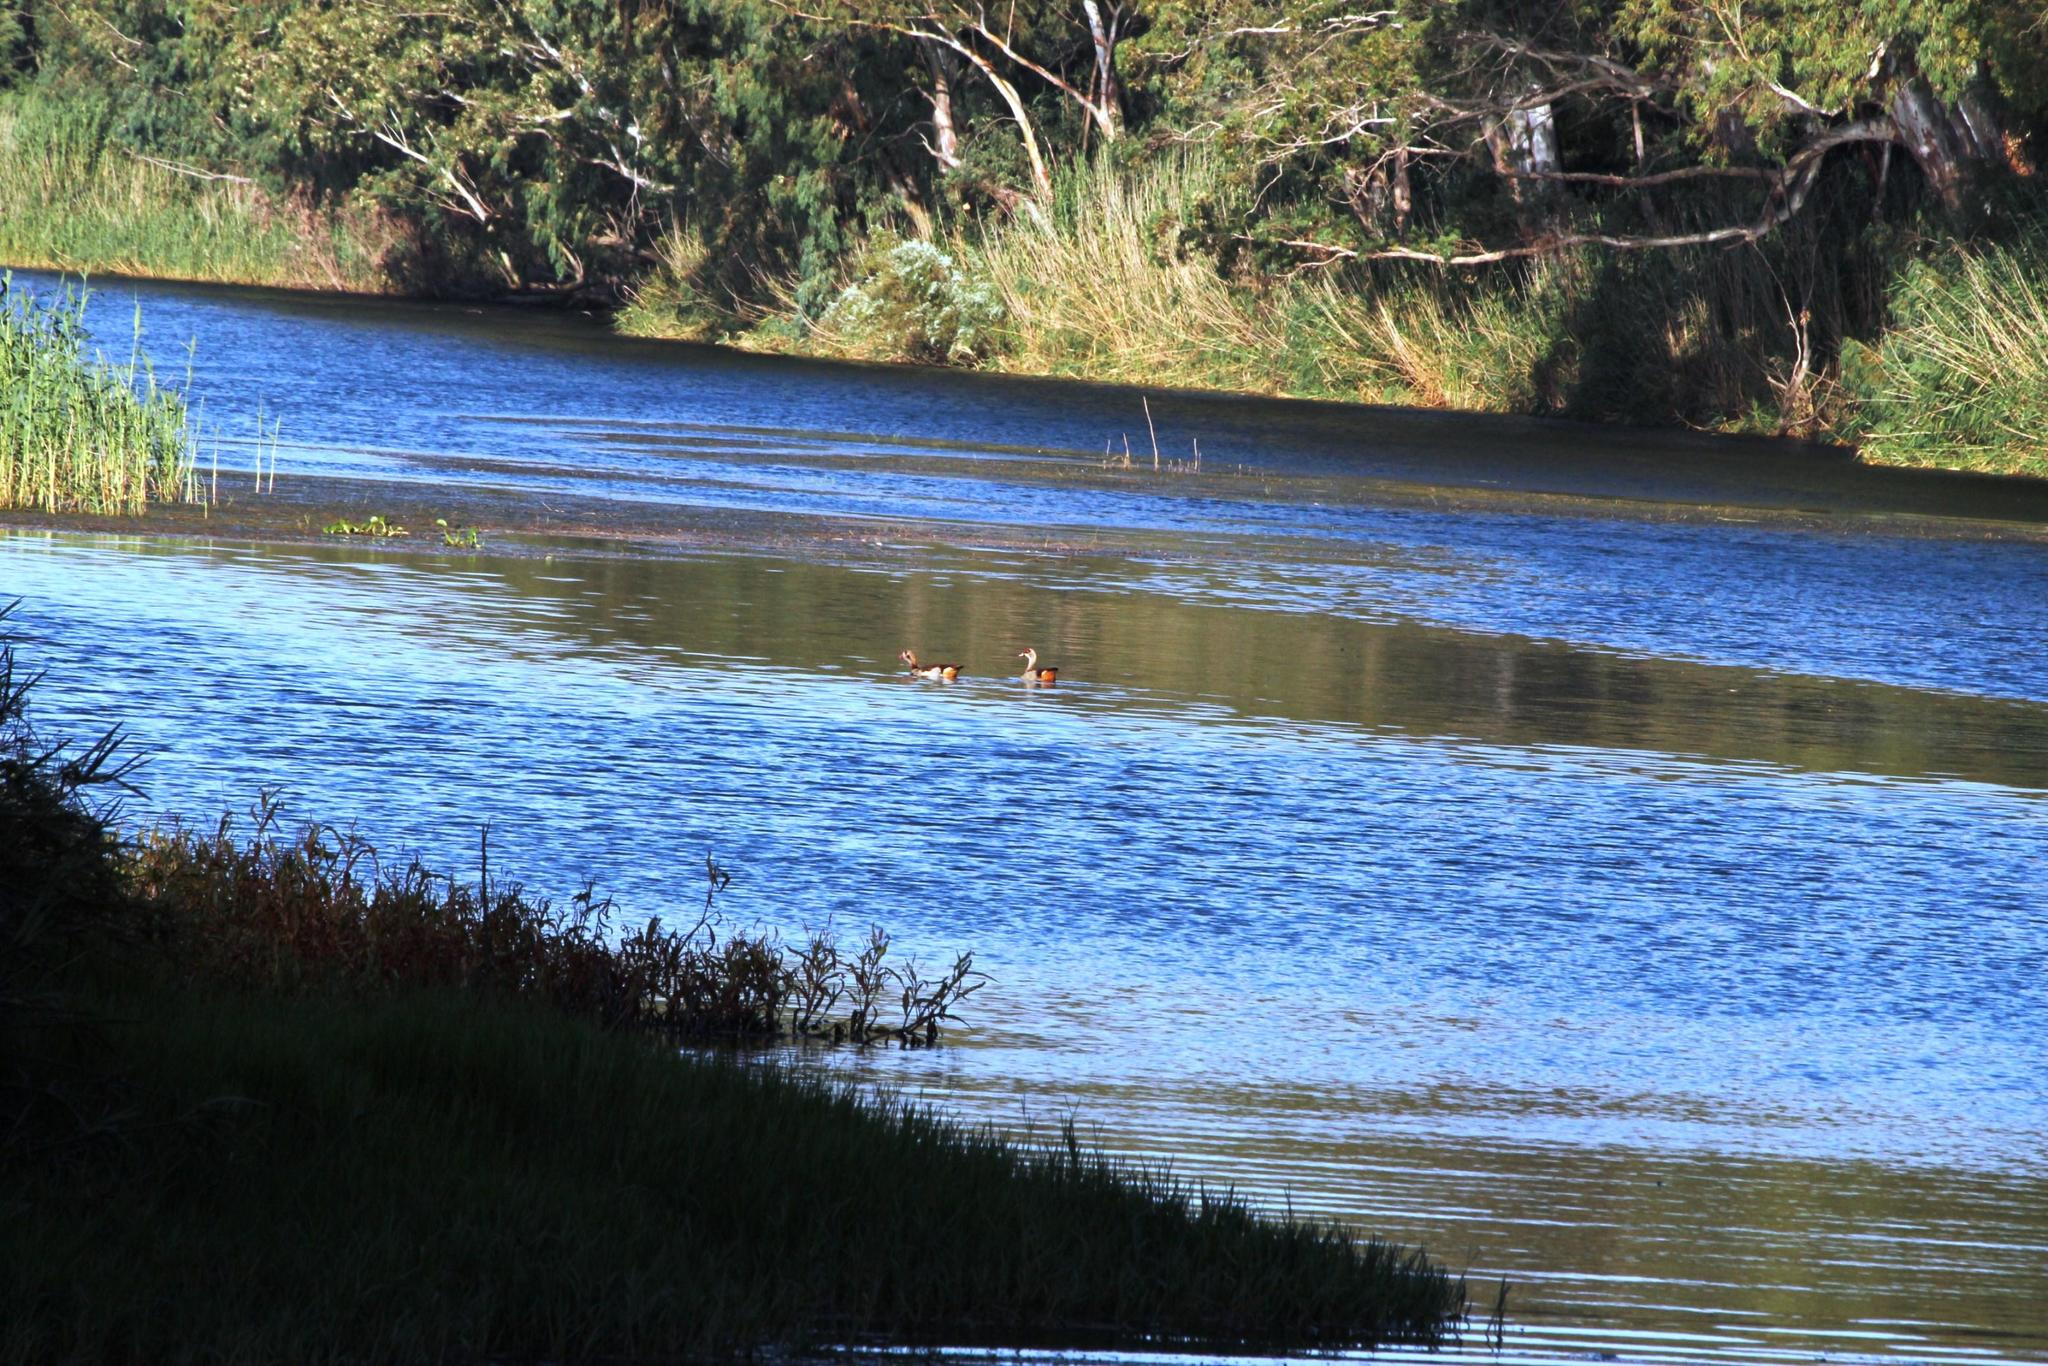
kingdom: Animalia
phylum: Chordata
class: Aves
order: Anseriformes
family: Anatidae
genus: Alopochen
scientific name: Alopochen aegyptiaca
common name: Egyptian goose
